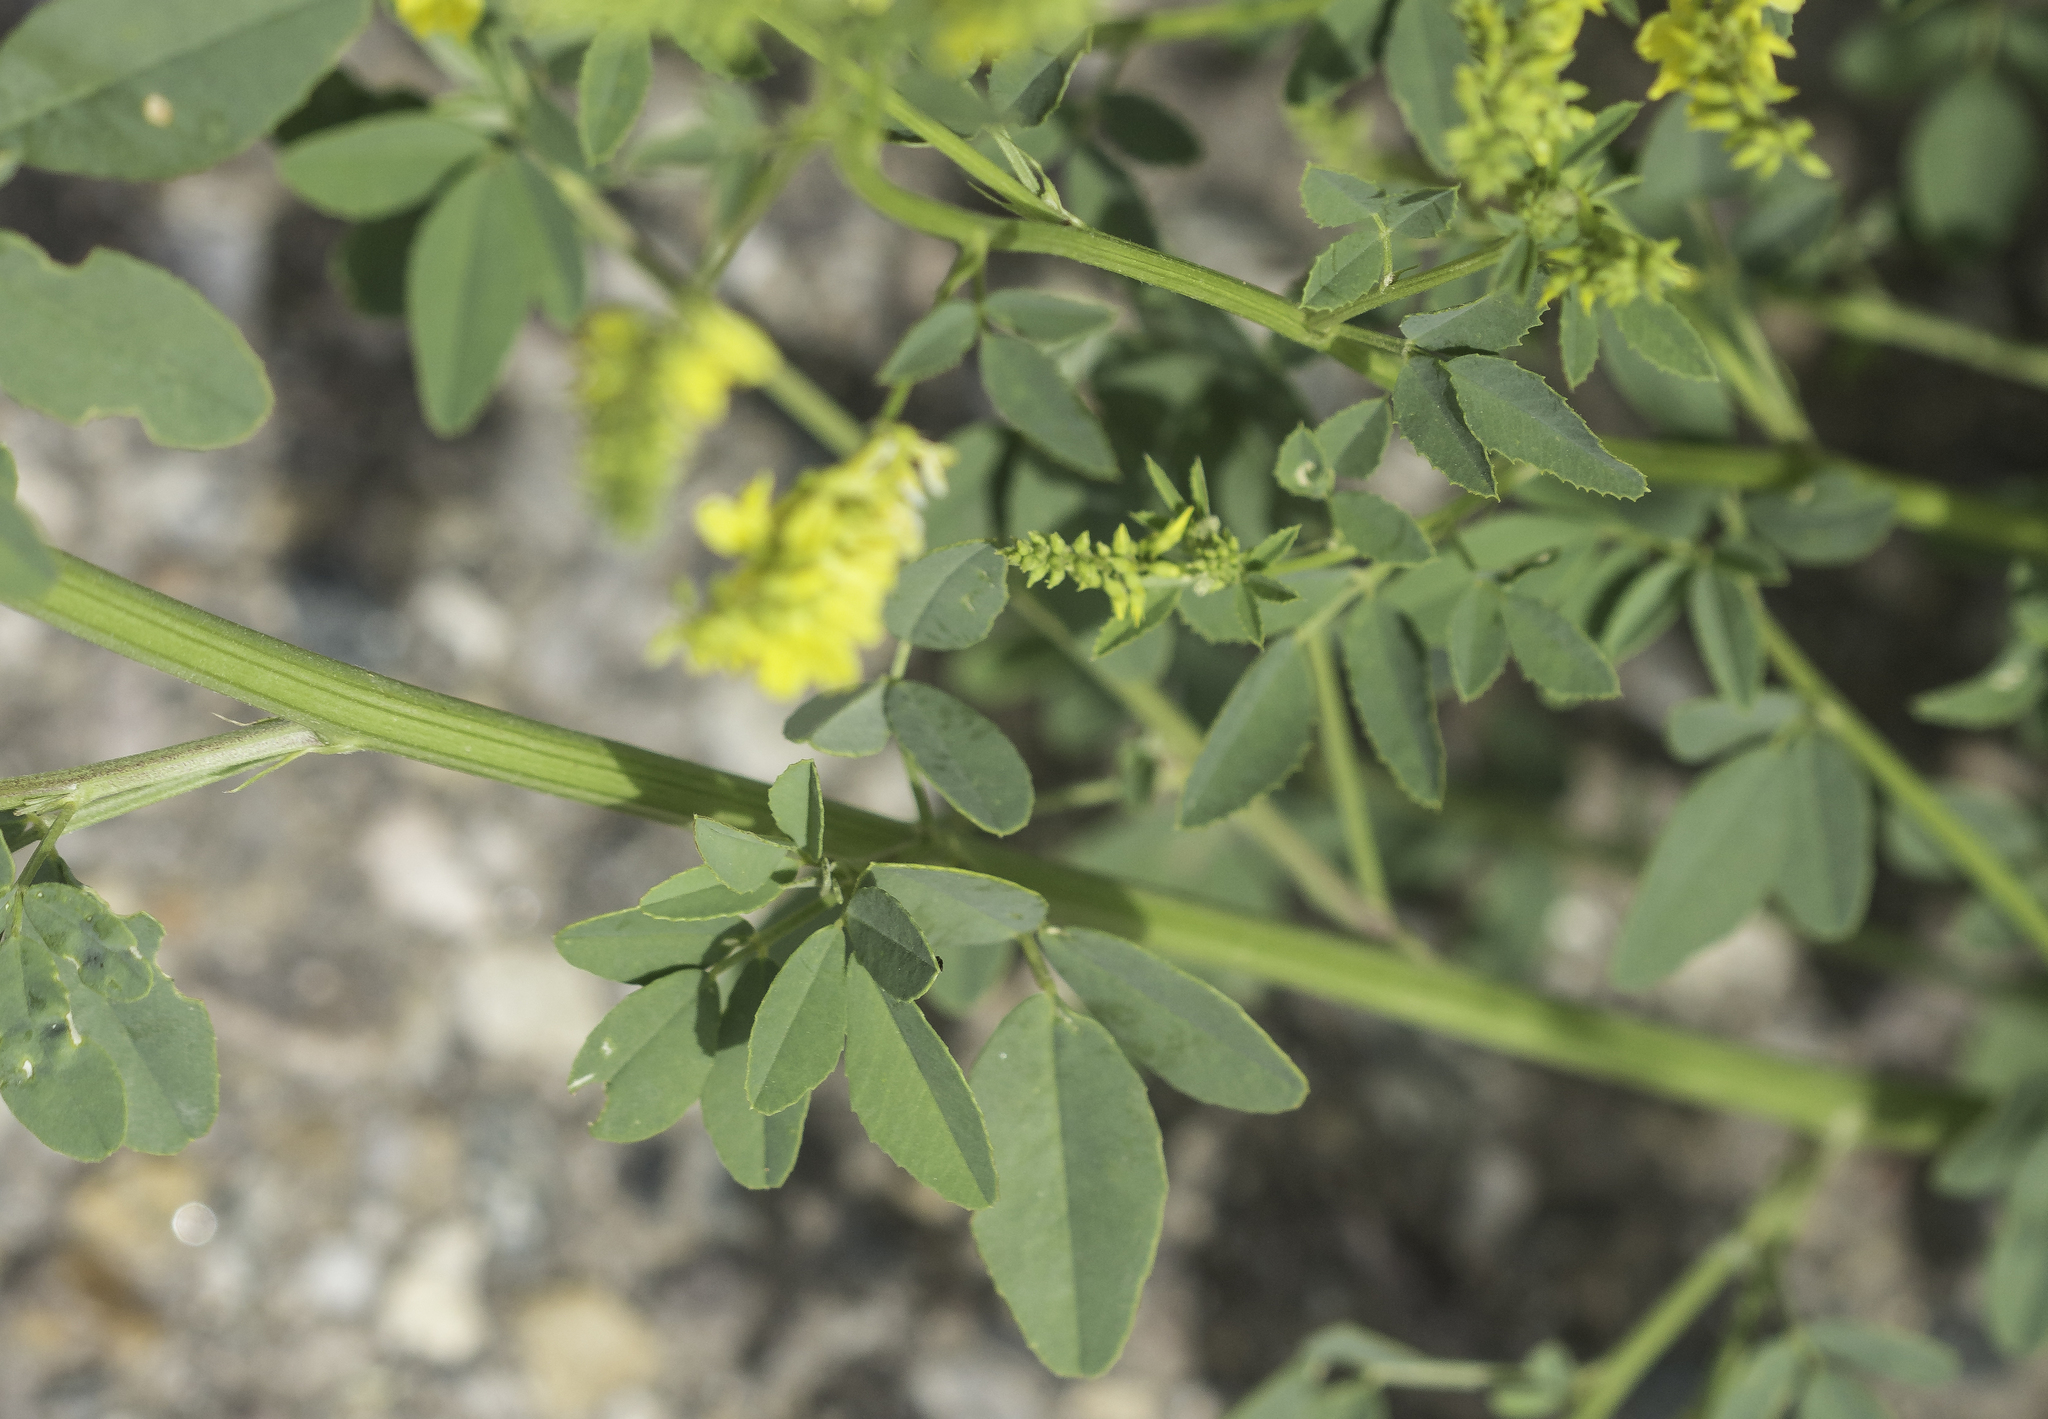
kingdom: Plantae
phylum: Tracheophyta
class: Magnoliopsida
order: Fabales
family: Fabaceae
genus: Melilotus
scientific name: Melilotus officinalis
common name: Sweetclover
